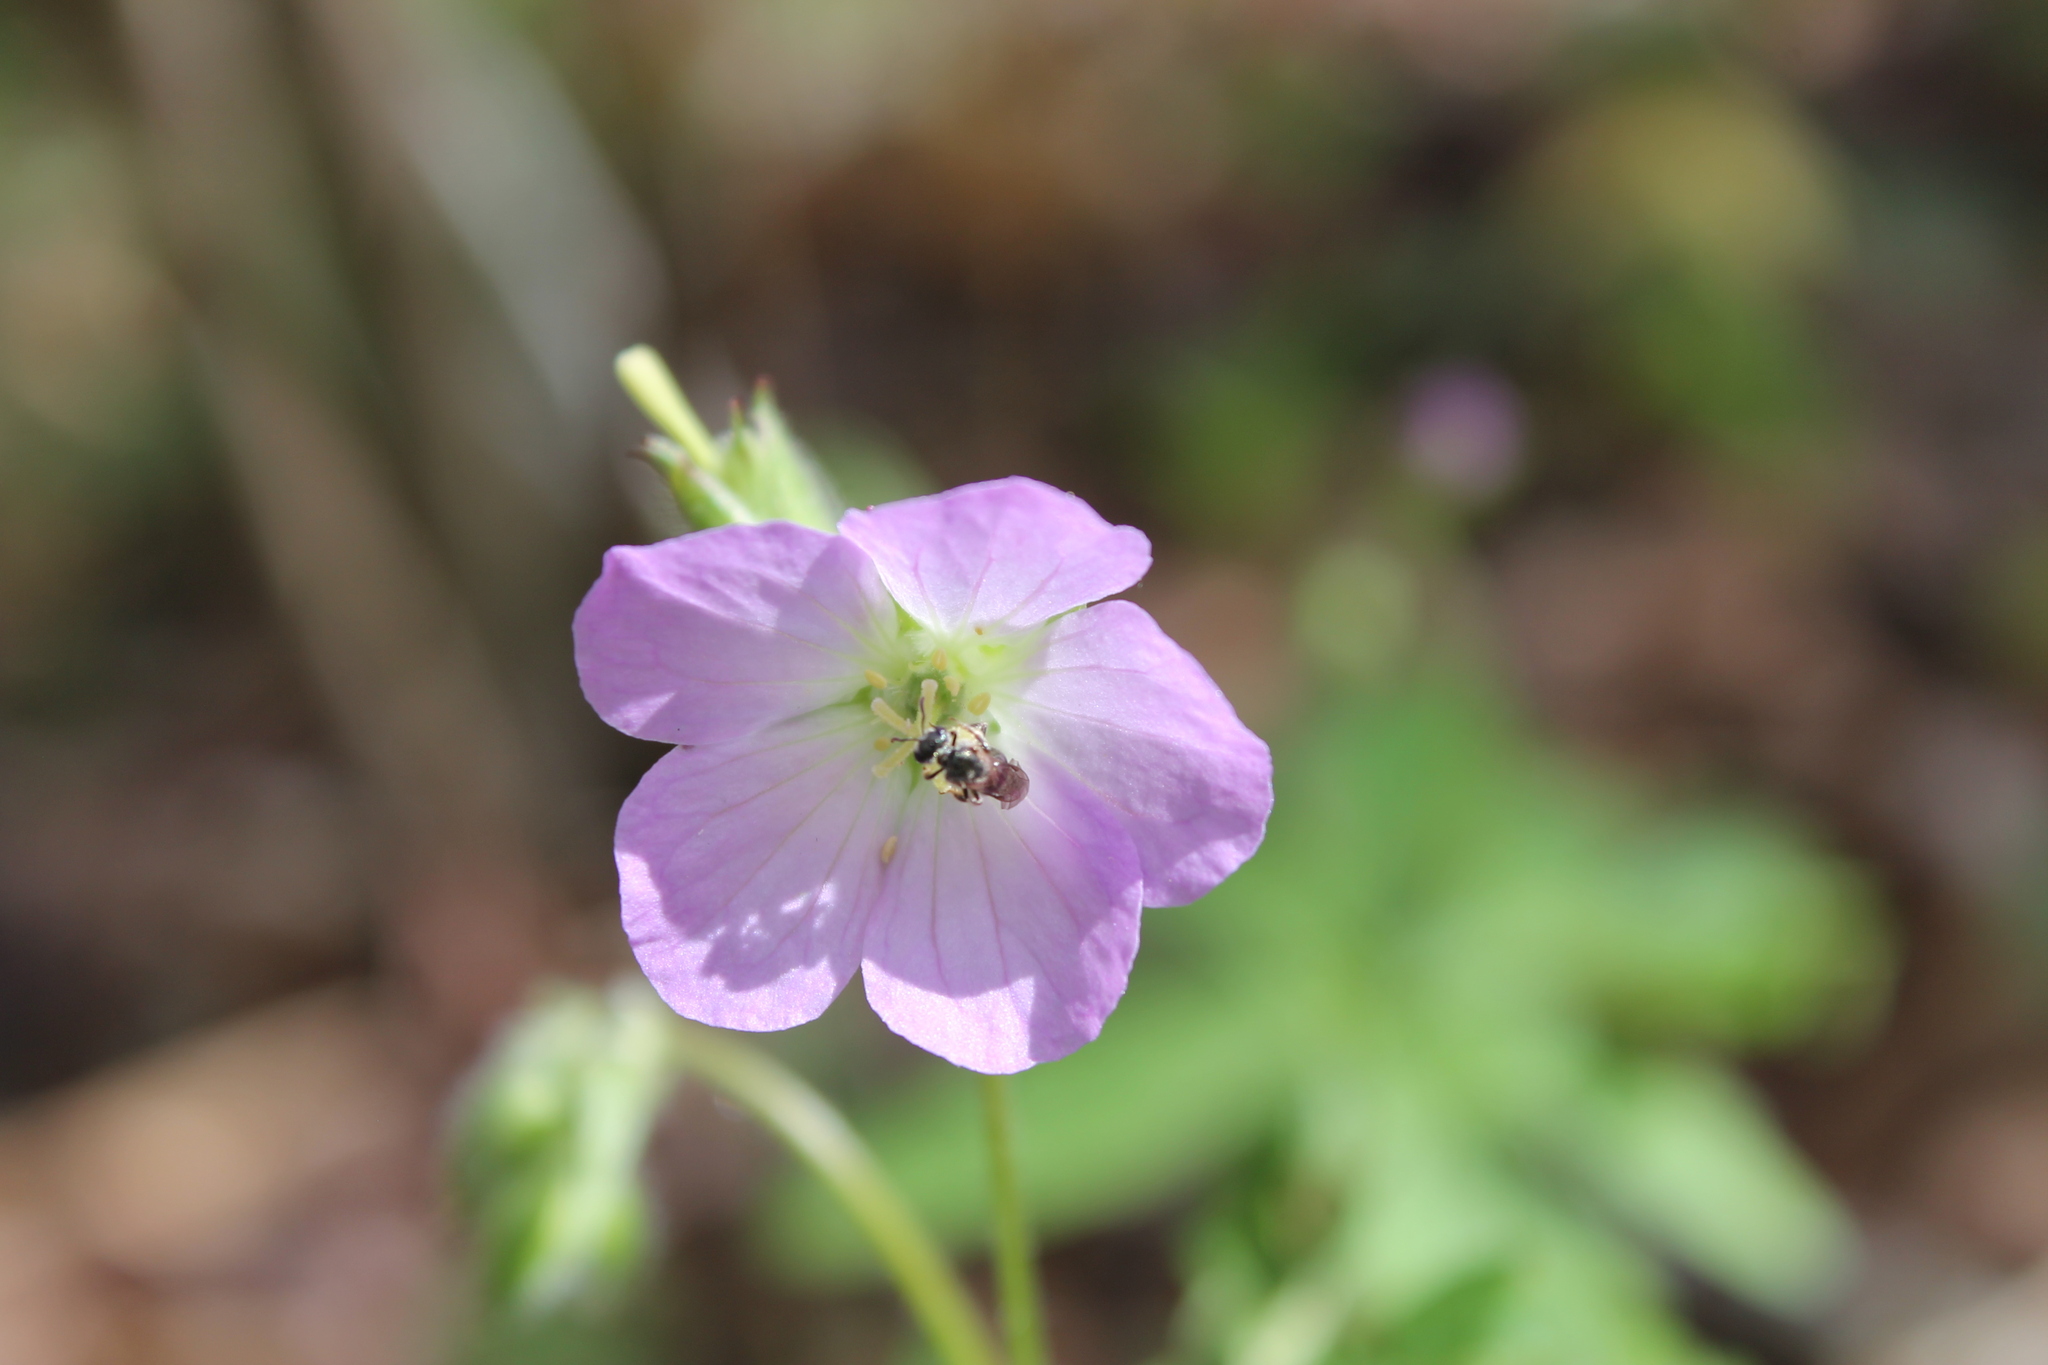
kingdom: Plantae
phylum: Tracheophyta
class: Magnoliopsida
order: Geraniales
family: Geraniaceae
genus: Geranium
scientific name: Geranium maculatum
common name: Spotted geranium
